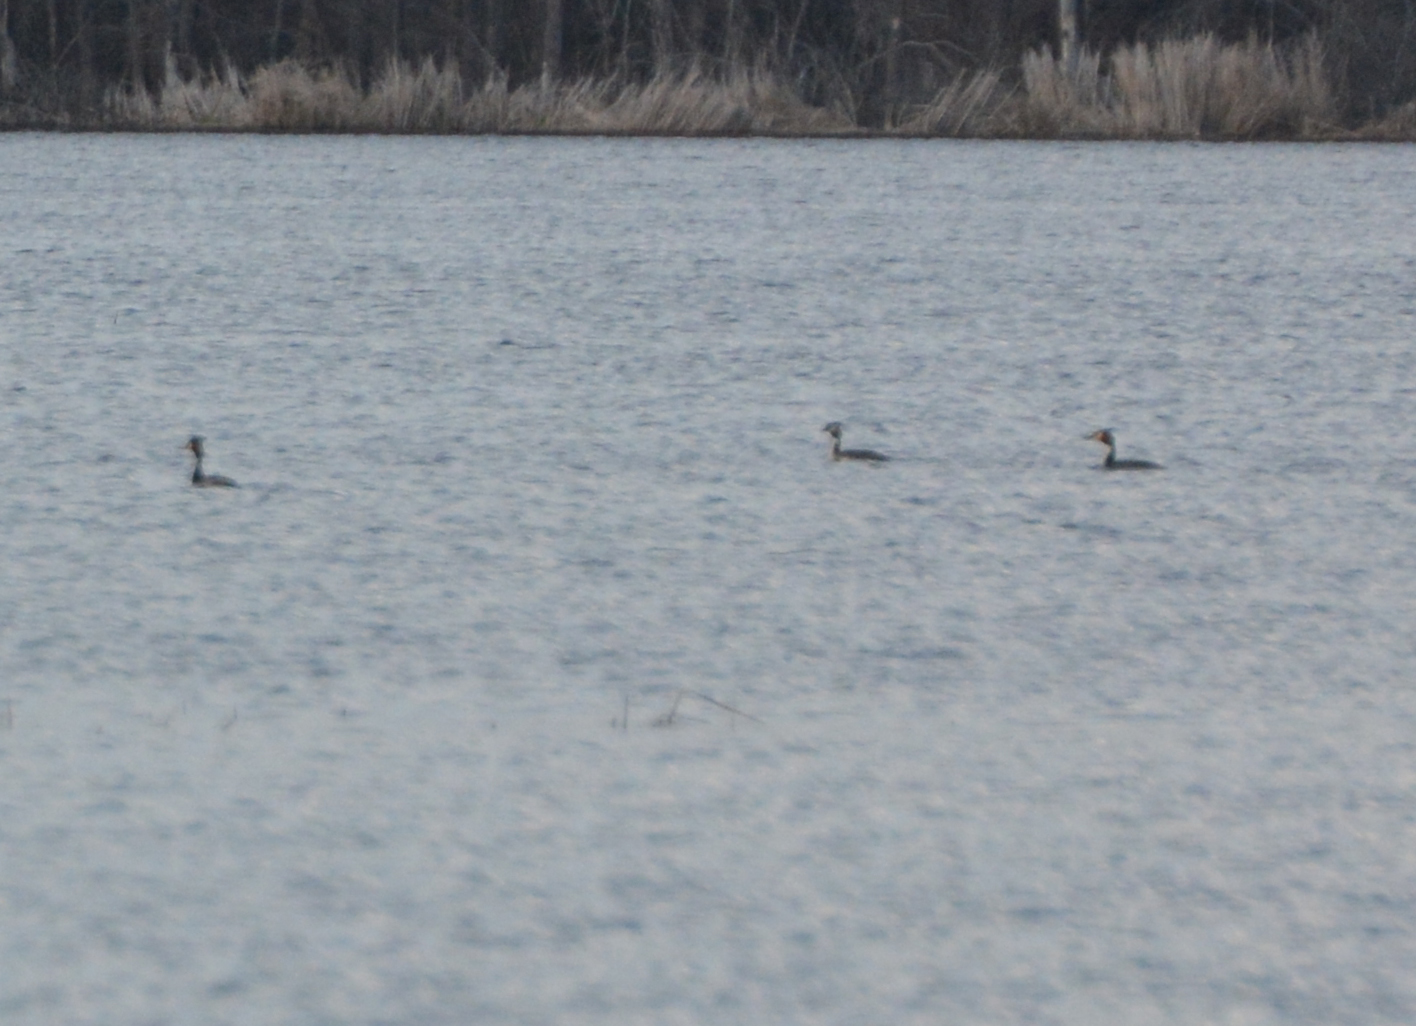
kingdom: Animalia
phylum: Chordata
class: Aves
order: Podicipediformes
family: Podicipedidae
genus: Podiceps
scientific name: Podiceps cristatus
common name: Great crested grebe
